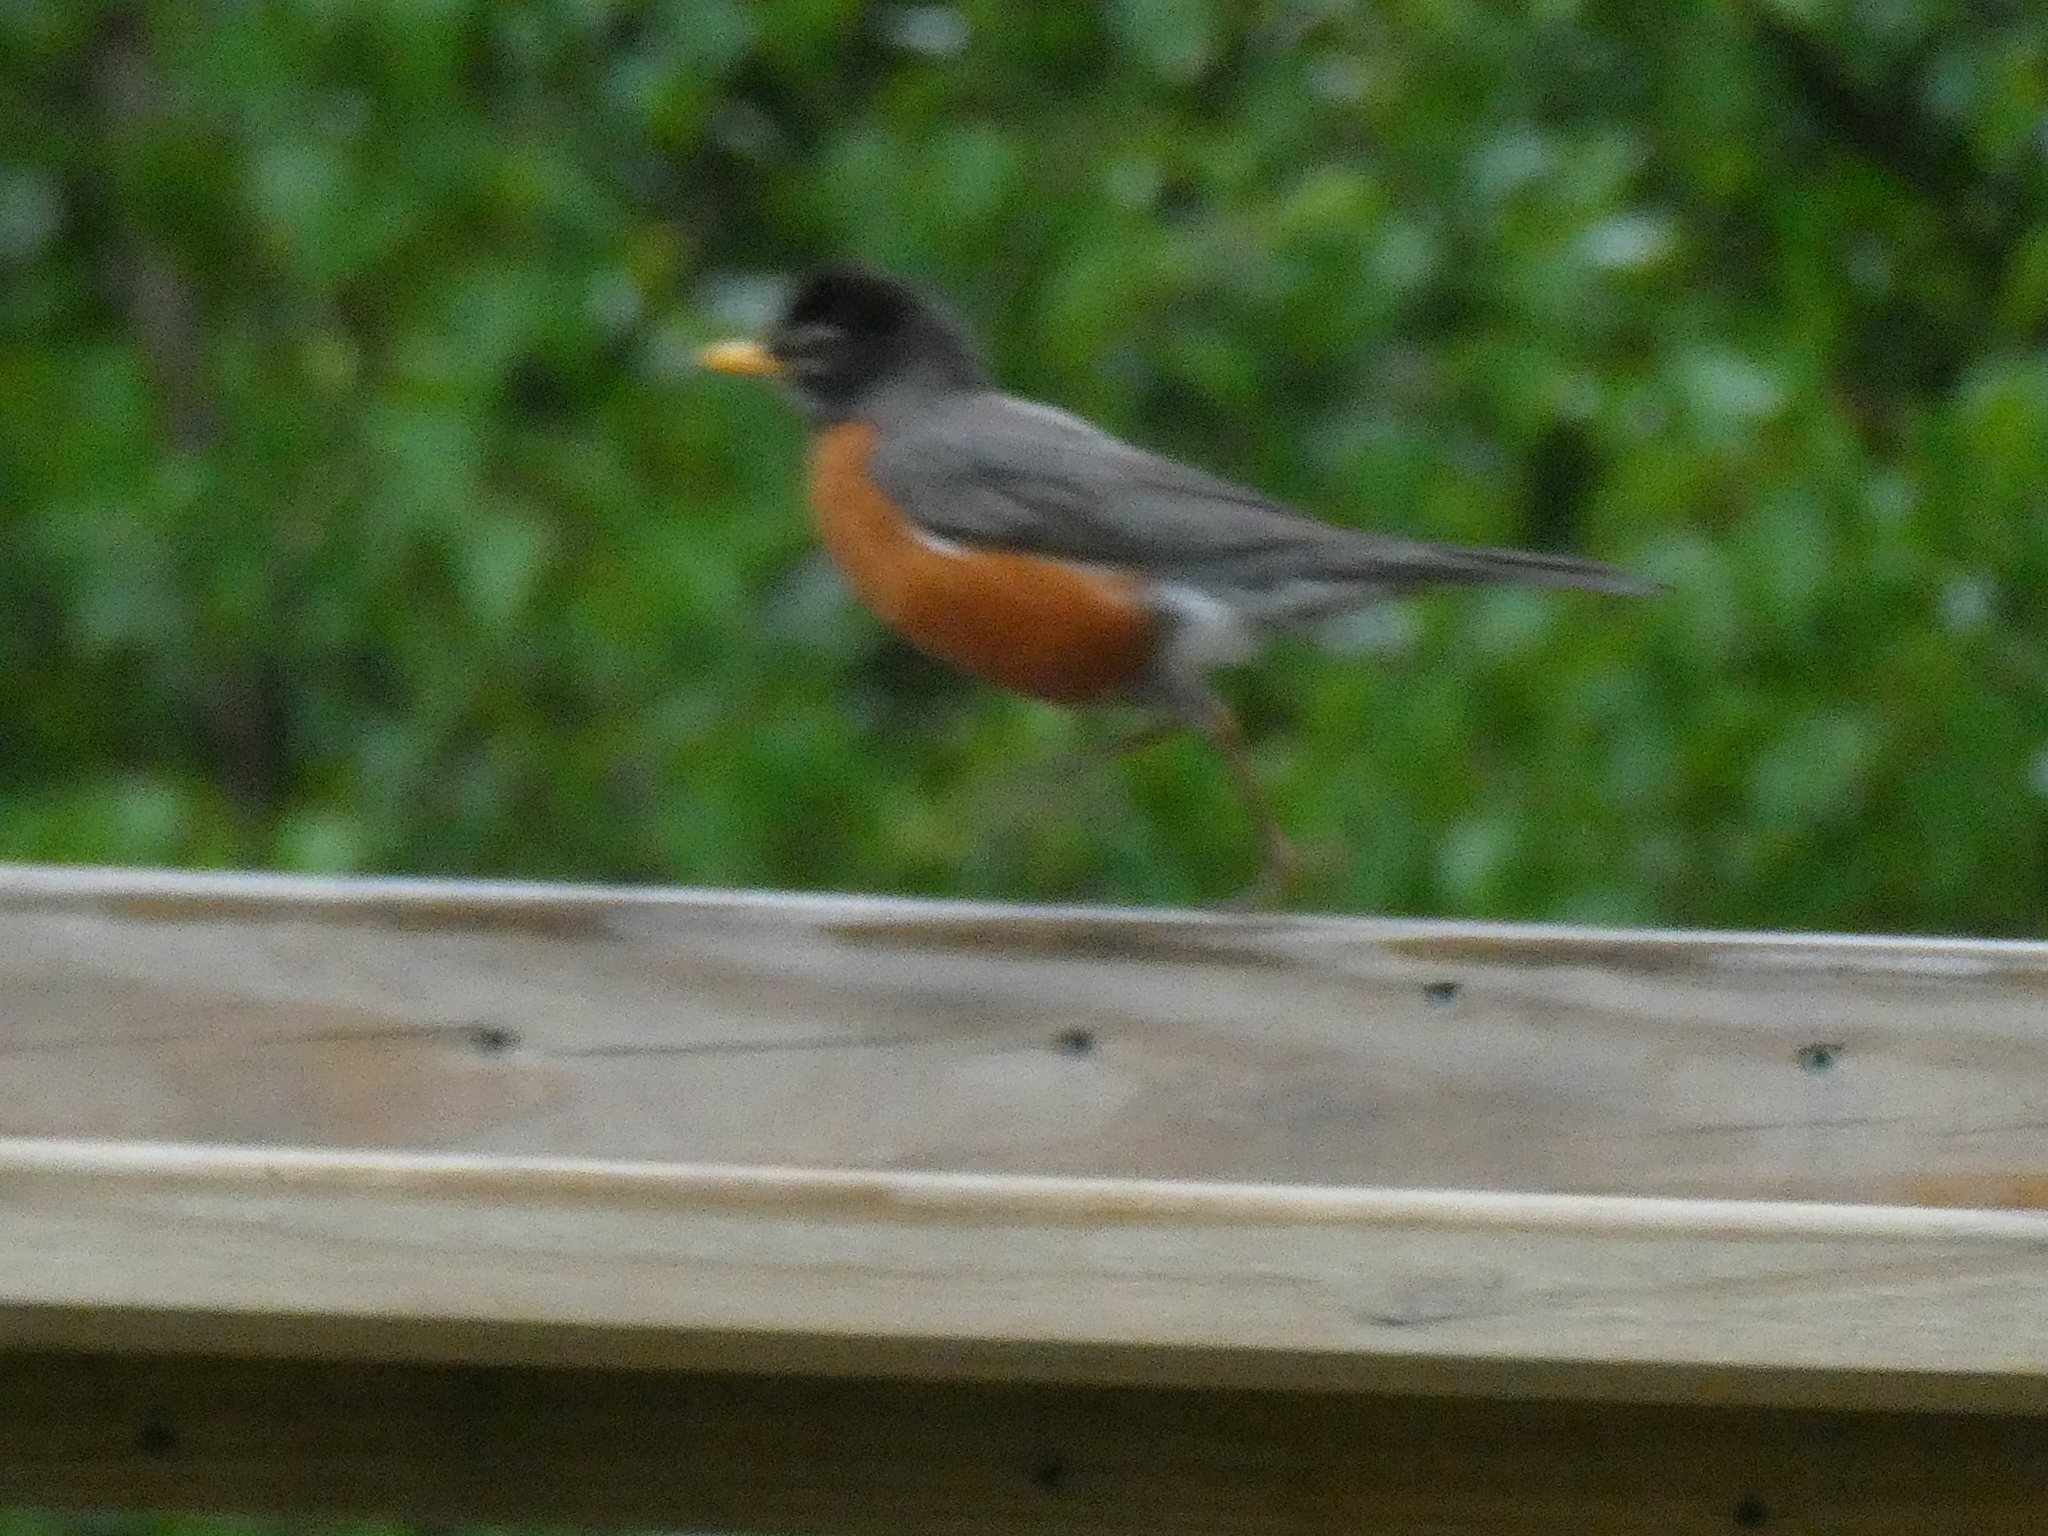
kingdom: Animalia
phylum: Chordata
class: Aves
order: Passeriformes
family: Turdidae
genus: Turdus
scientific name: Turdus migratorius
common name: American robin
